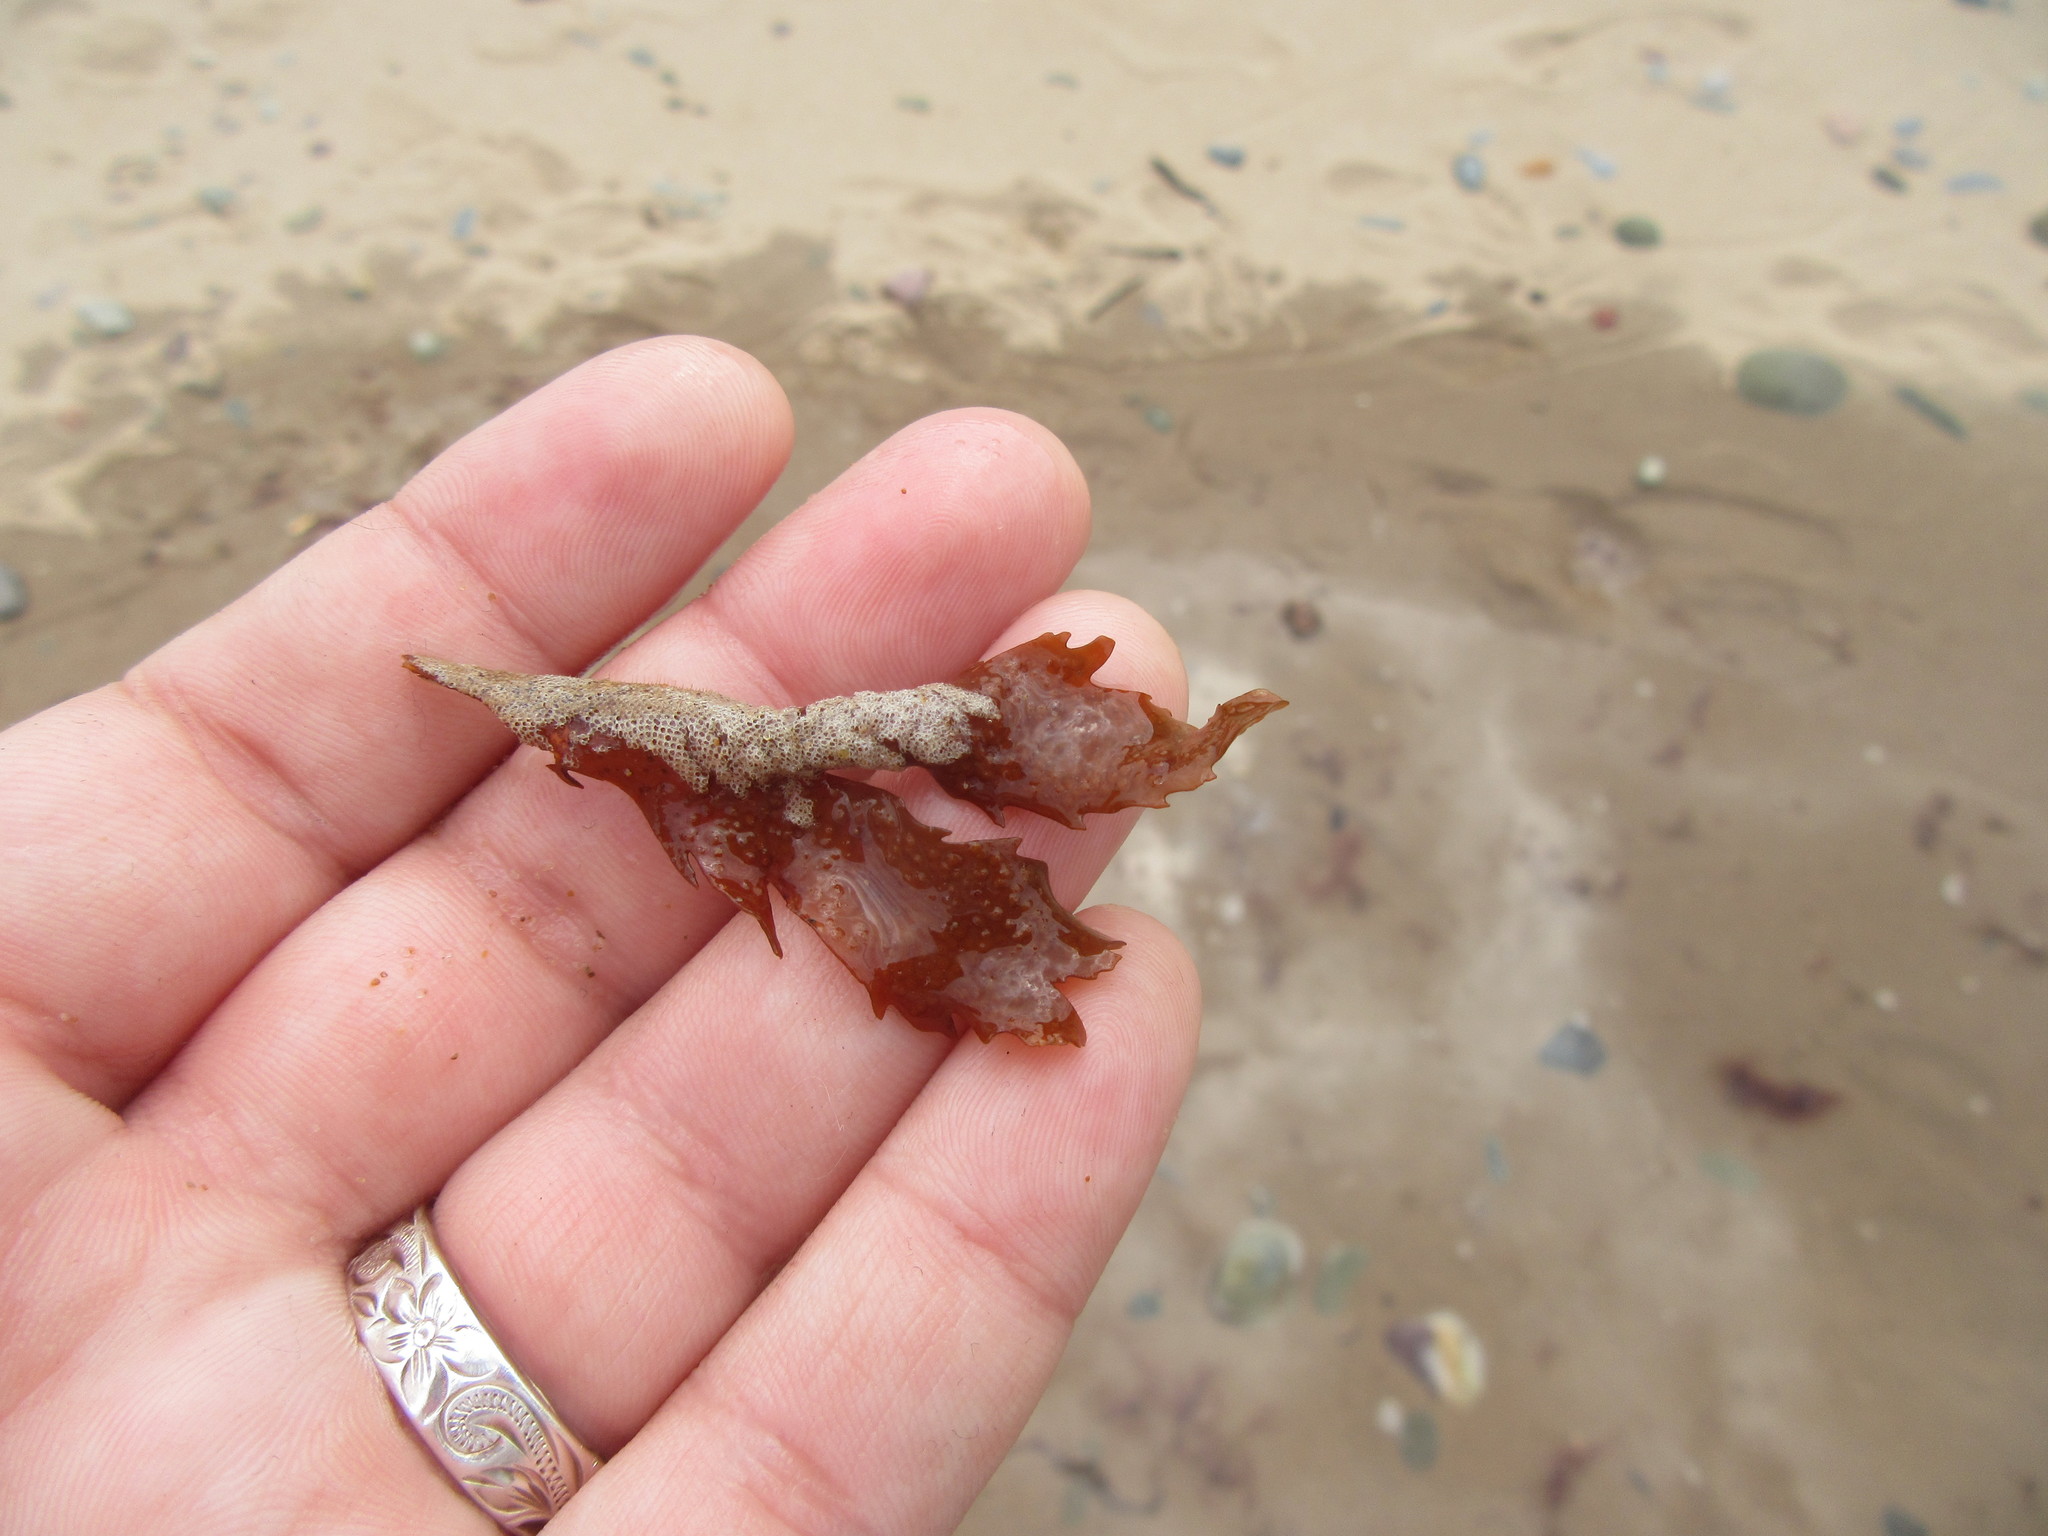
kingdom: Chromista
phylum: Ochrophyta
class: Phaeophyceae
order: Fucales
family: Fucaceae
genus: Fucus
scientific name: Fucus serratus
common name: Toothed wrack
